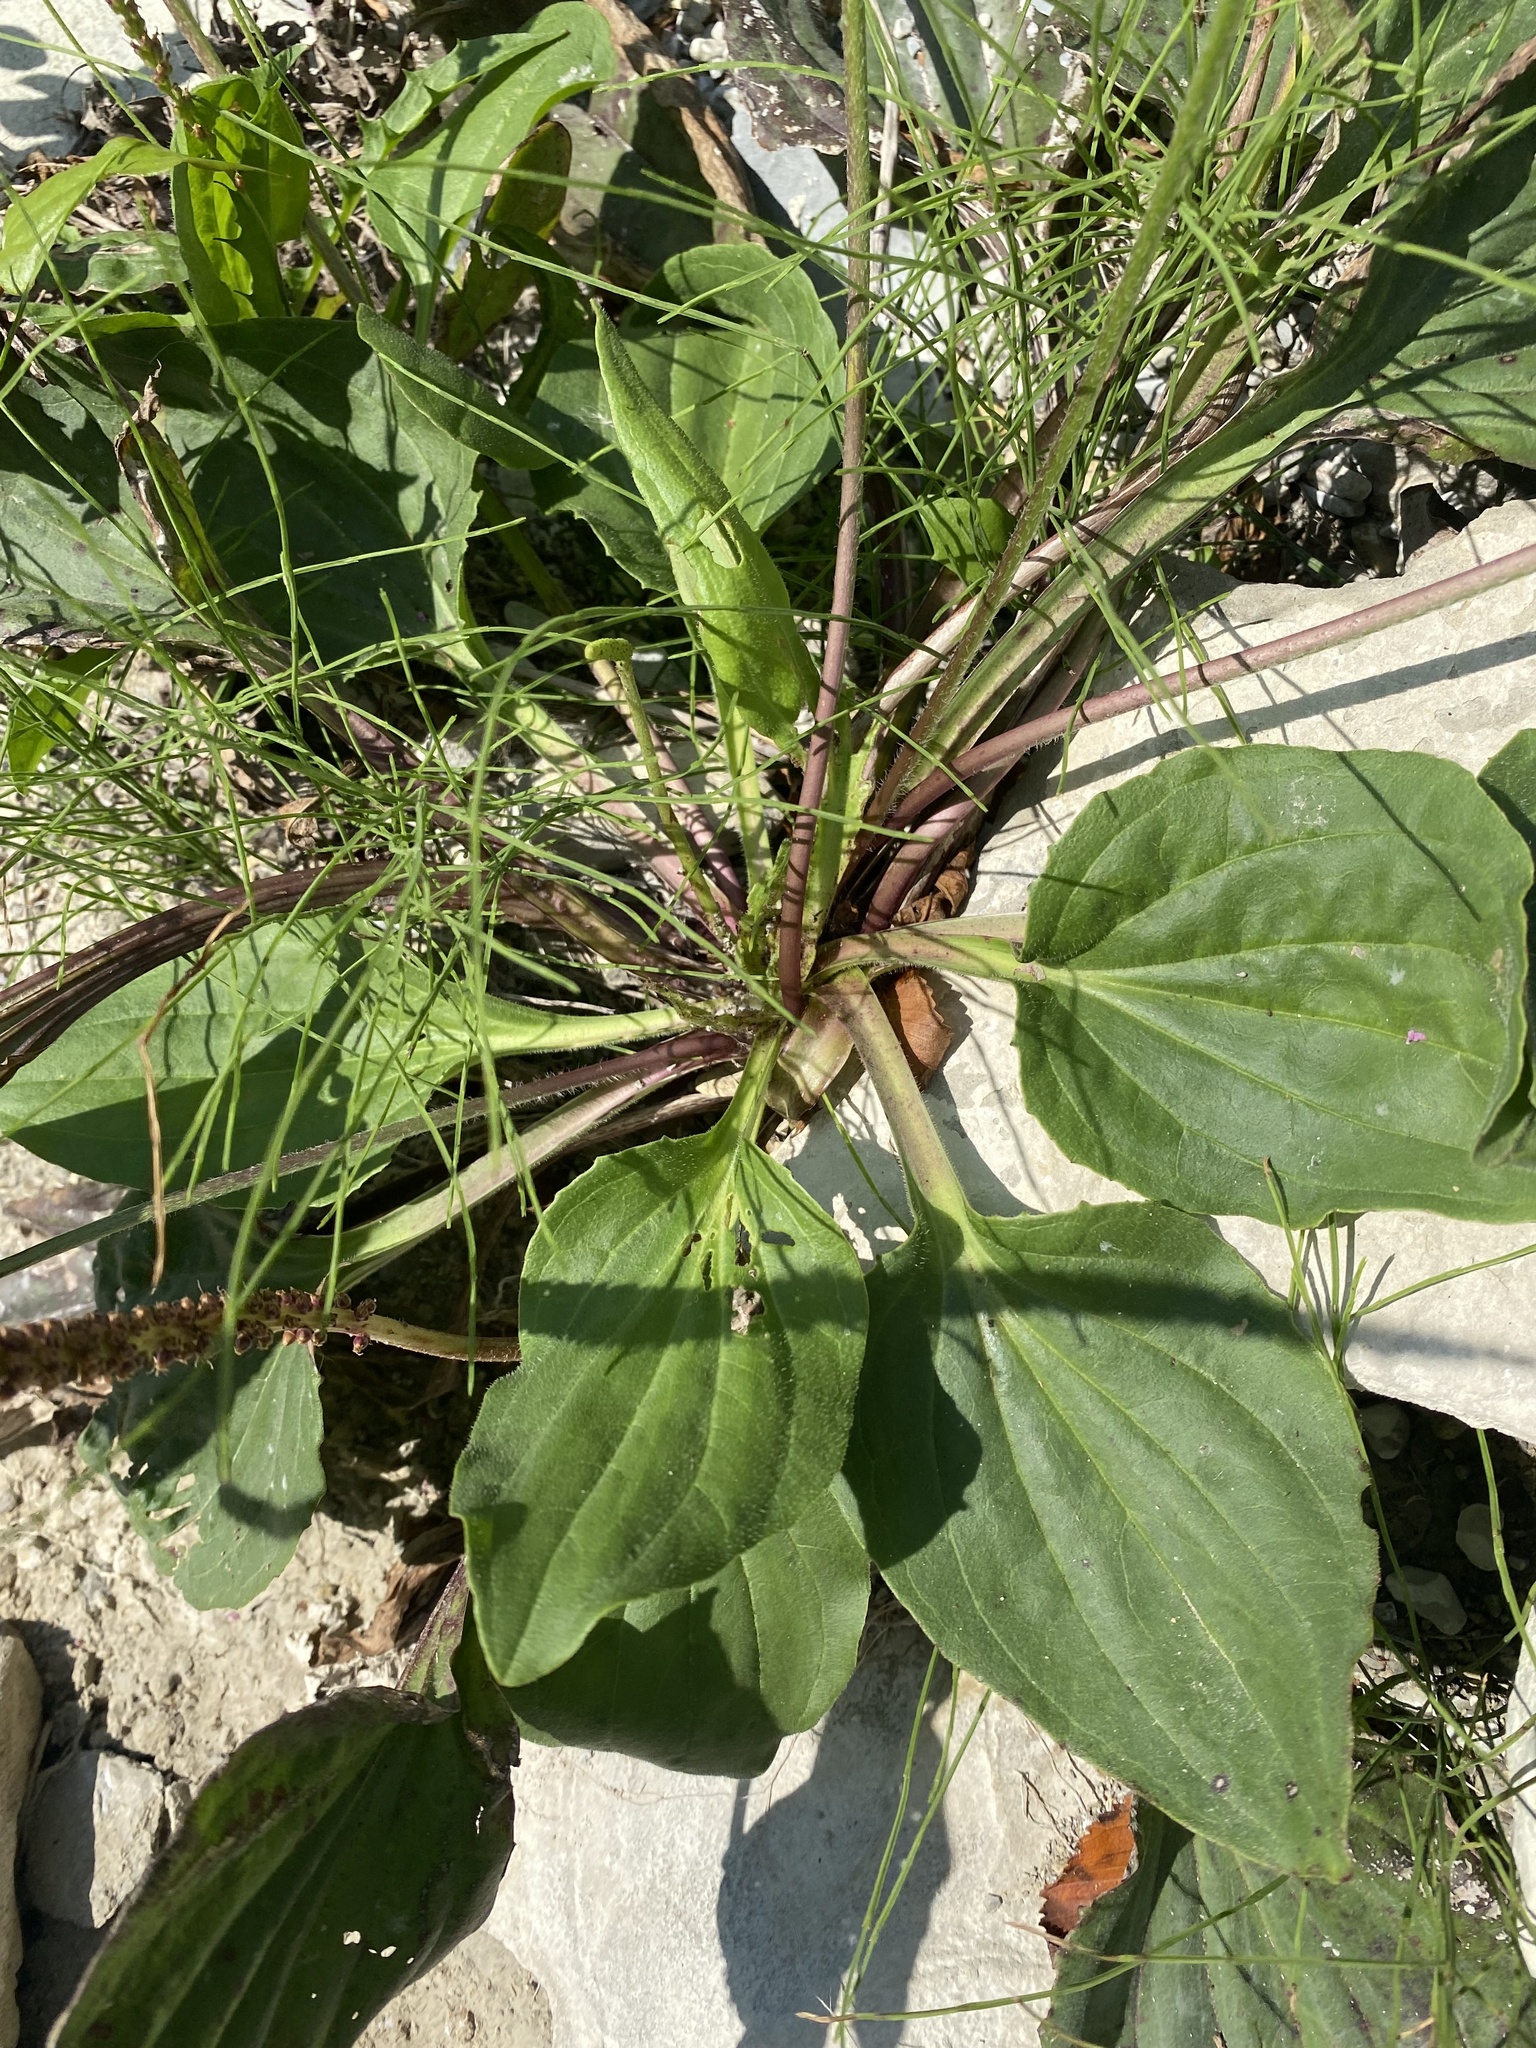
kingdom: Plantae
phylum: Tracheophyta
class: Magnoliopsida
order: Lamiales
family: Plantaginaceae
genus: Plantago
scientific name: Plantago major
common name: Common plantain
